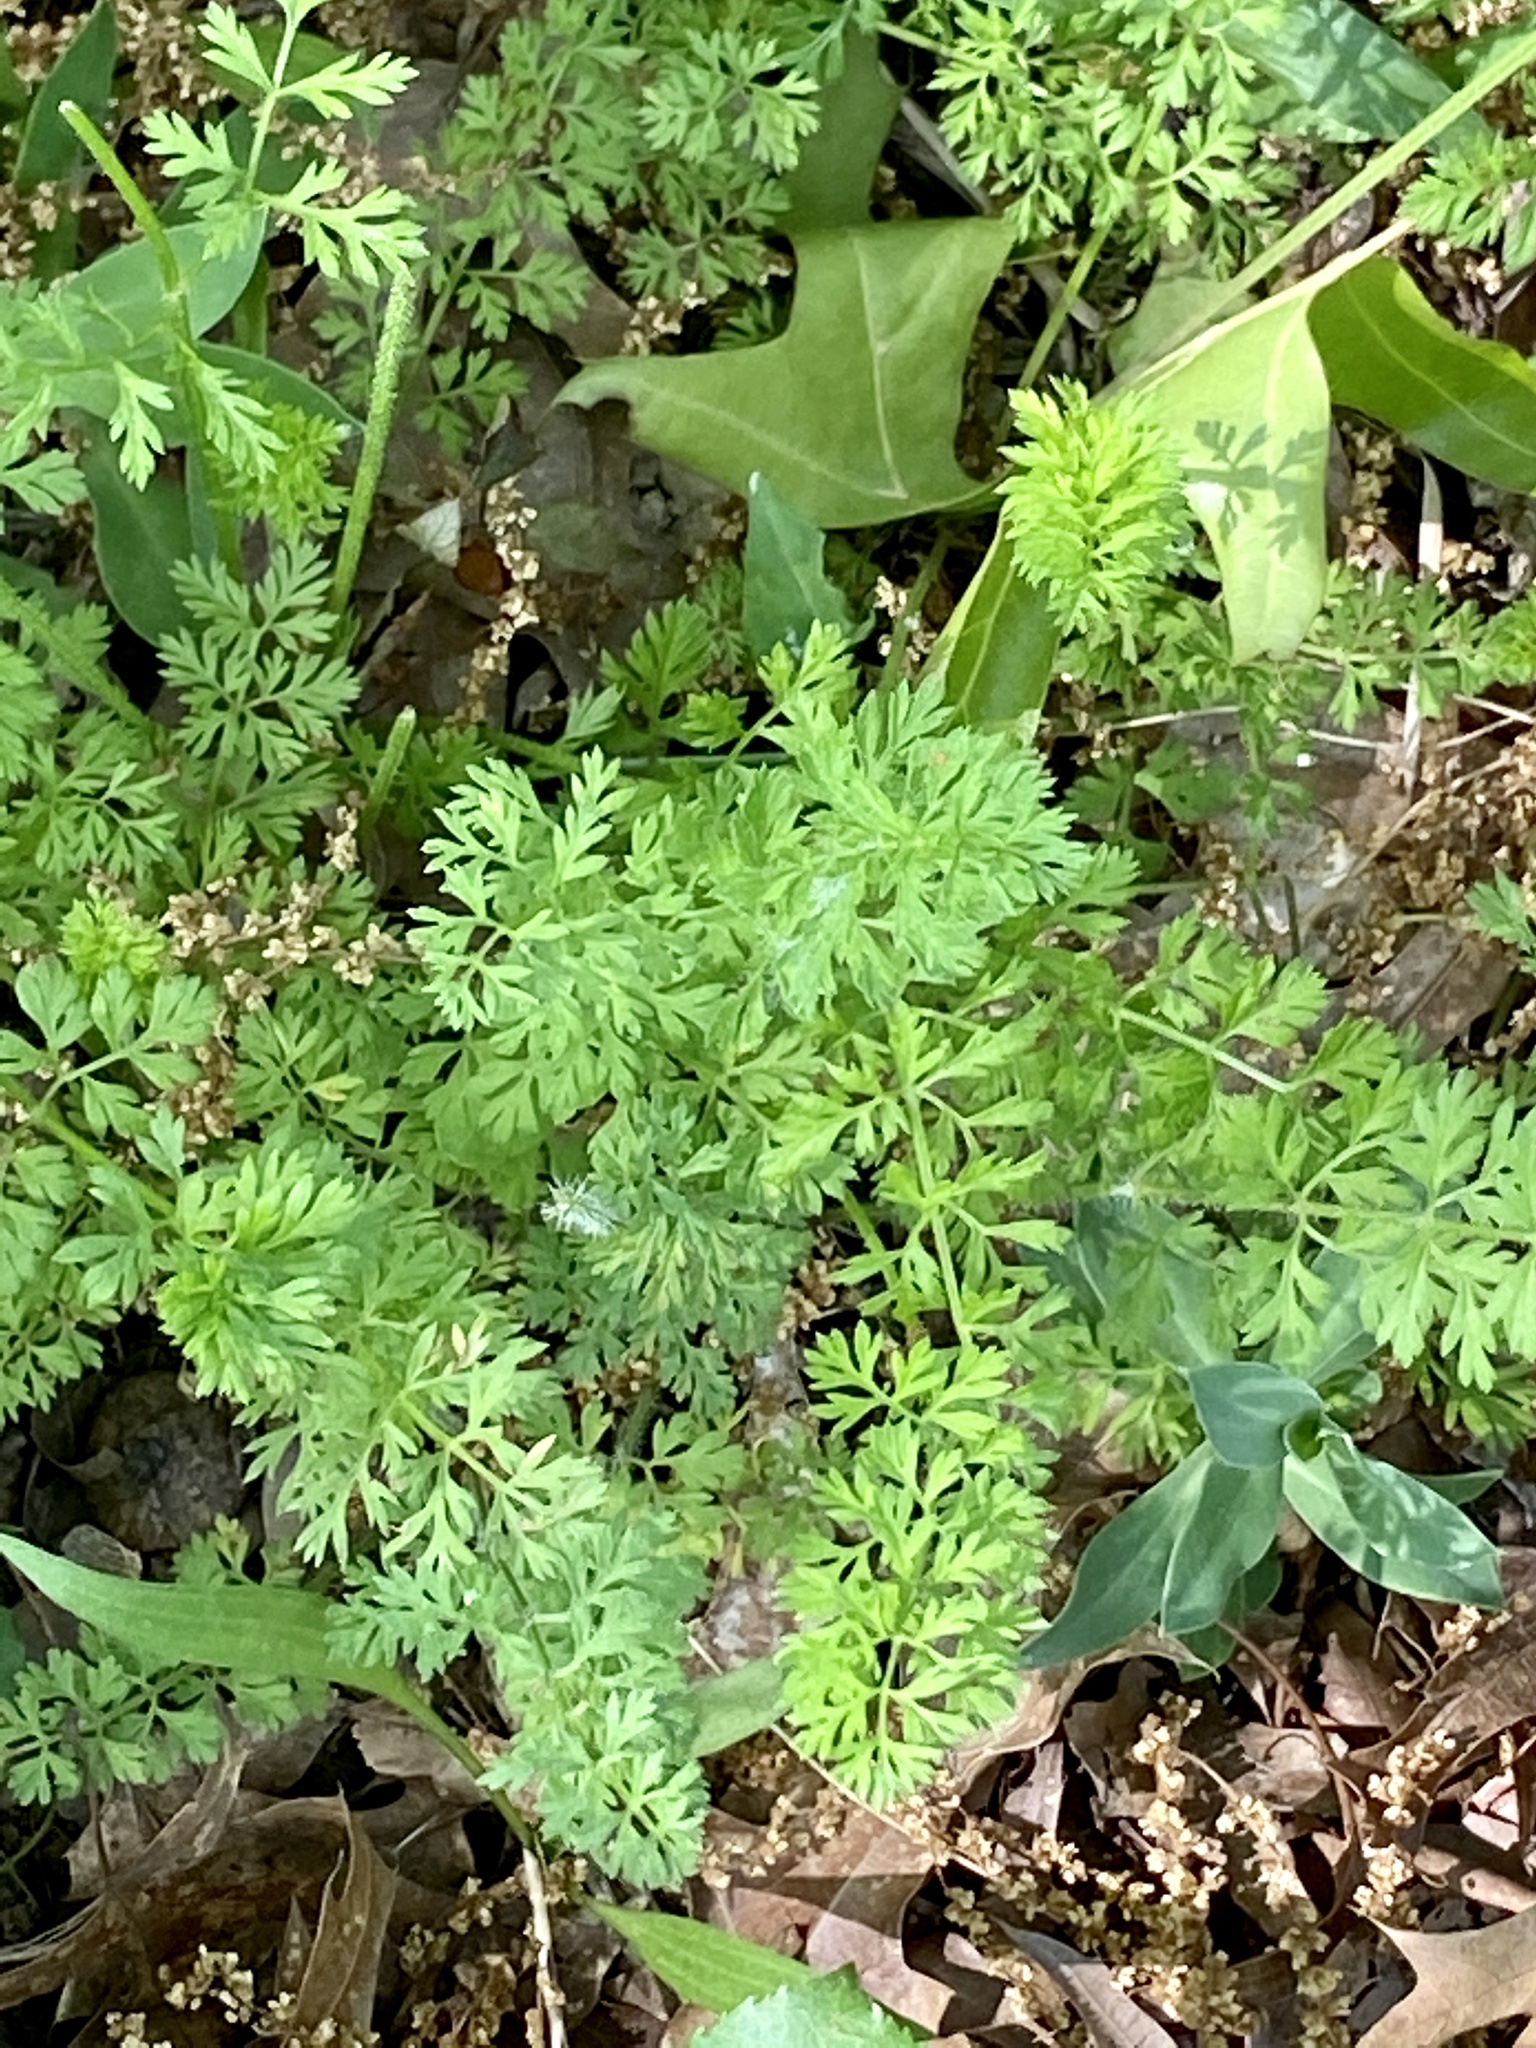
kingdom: Plantae
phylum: Tracheophyta
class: Magnoliopsida
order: Apiales
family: Apiaceae
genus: Daucus
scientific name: Daucus carota
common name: Wild carrot
